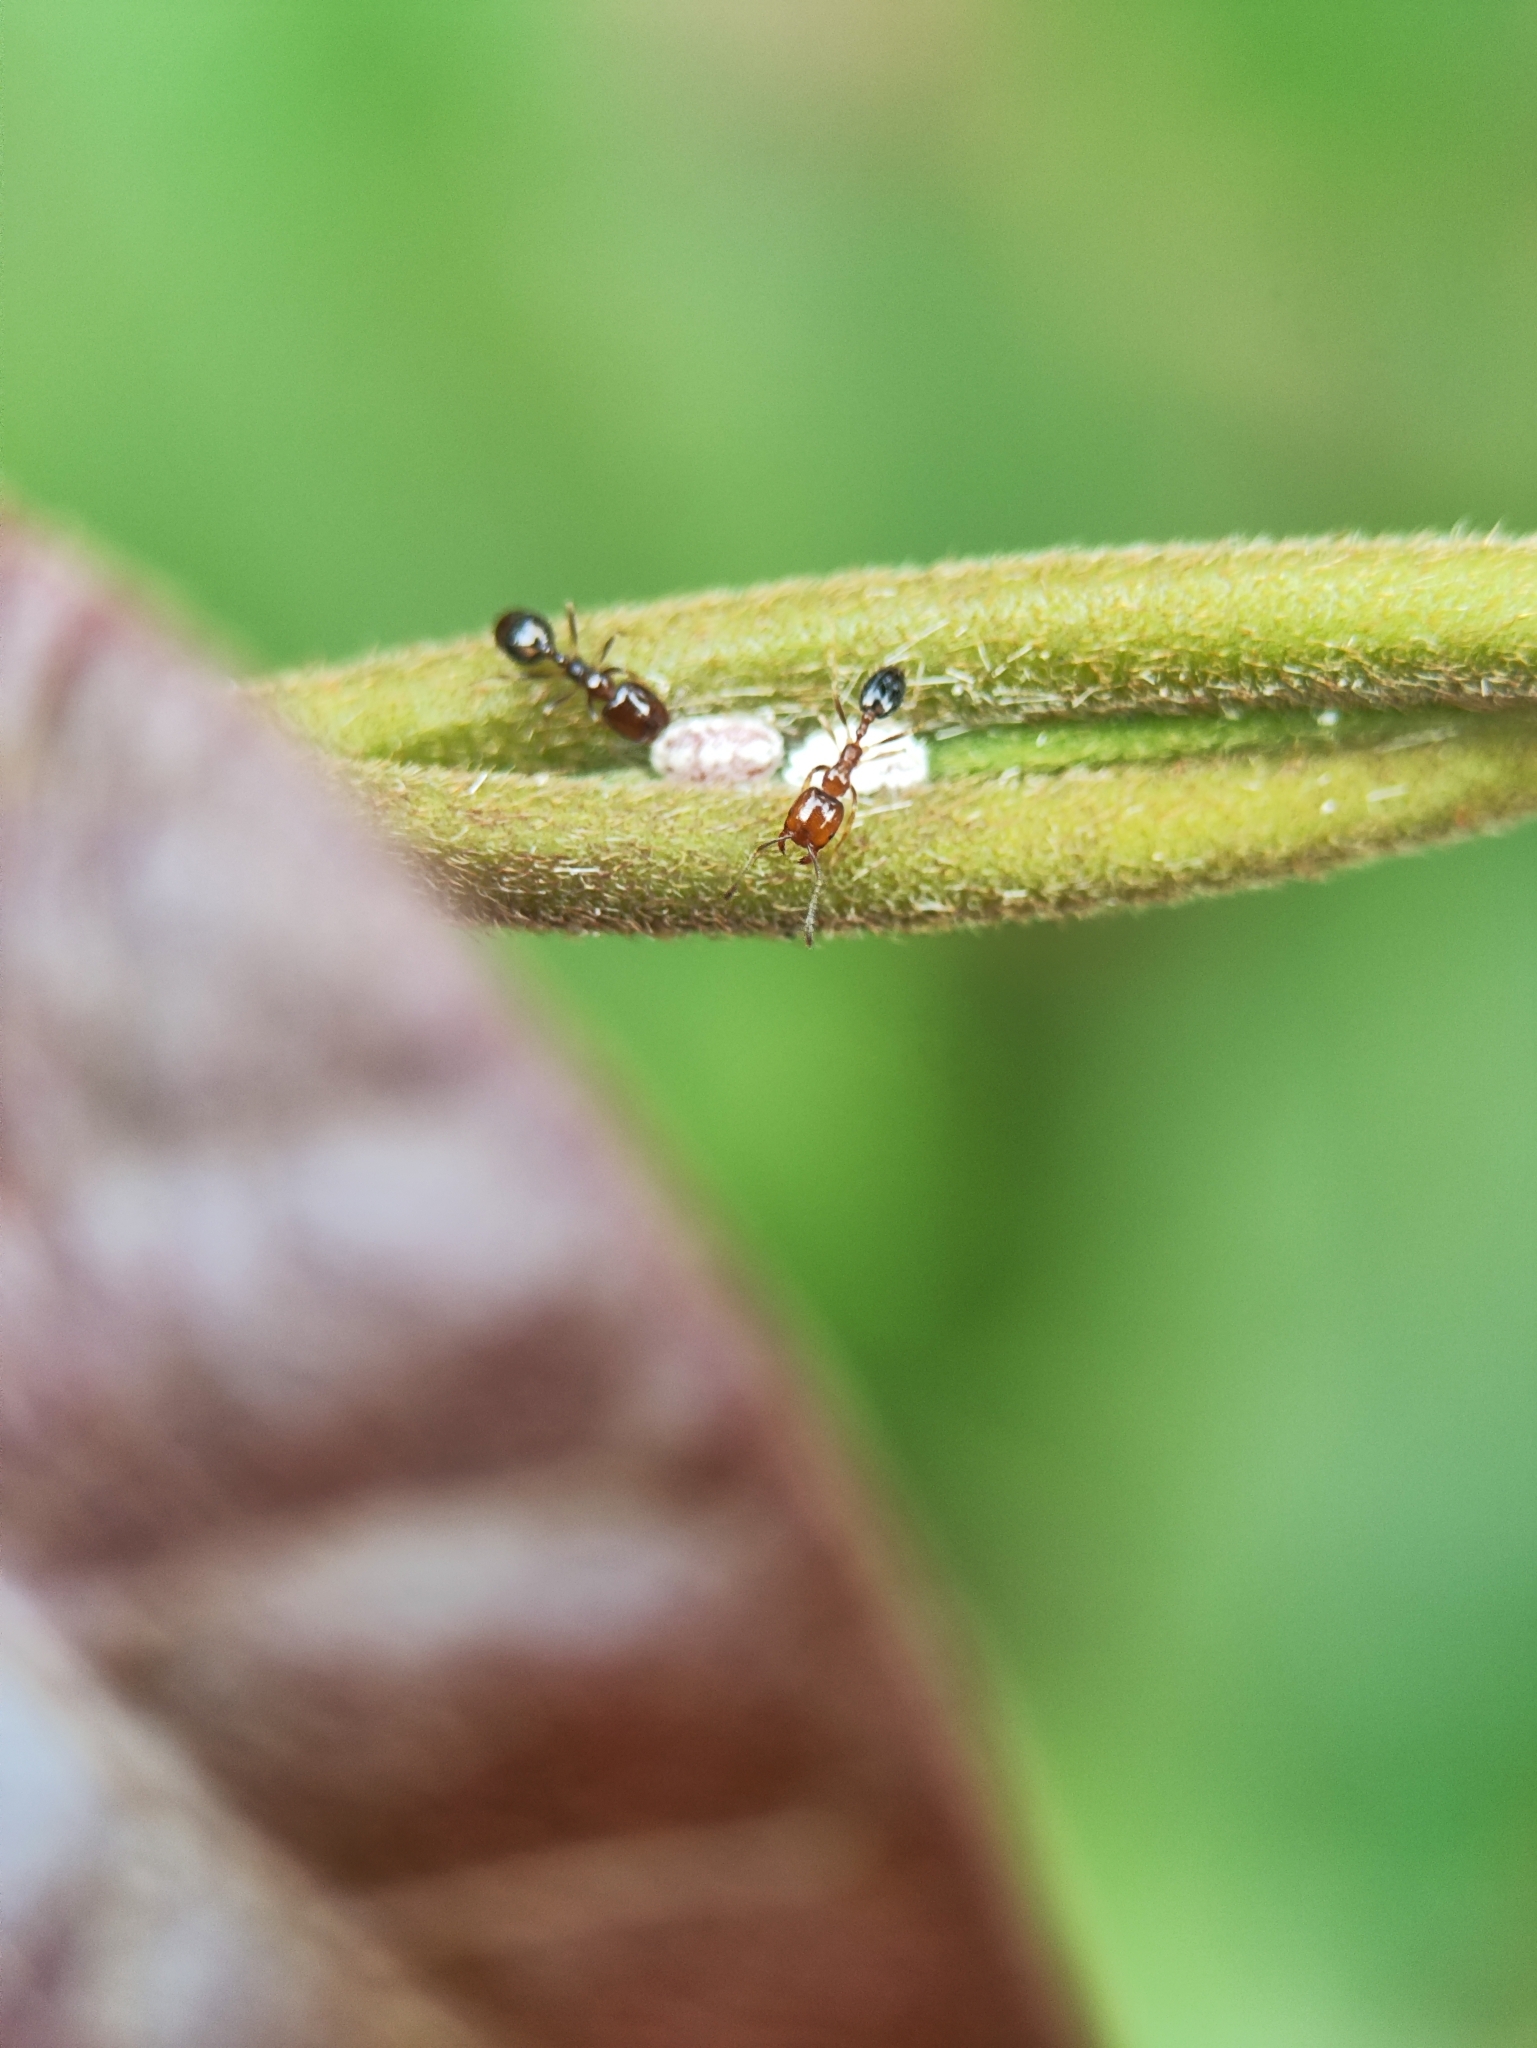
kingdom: Animalia
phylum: Arthropoda
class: Insecta
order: Hymenoptera
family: Formicidae
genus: Monomorium
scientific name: Monomorium destructor
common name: Destructive trailing ant
